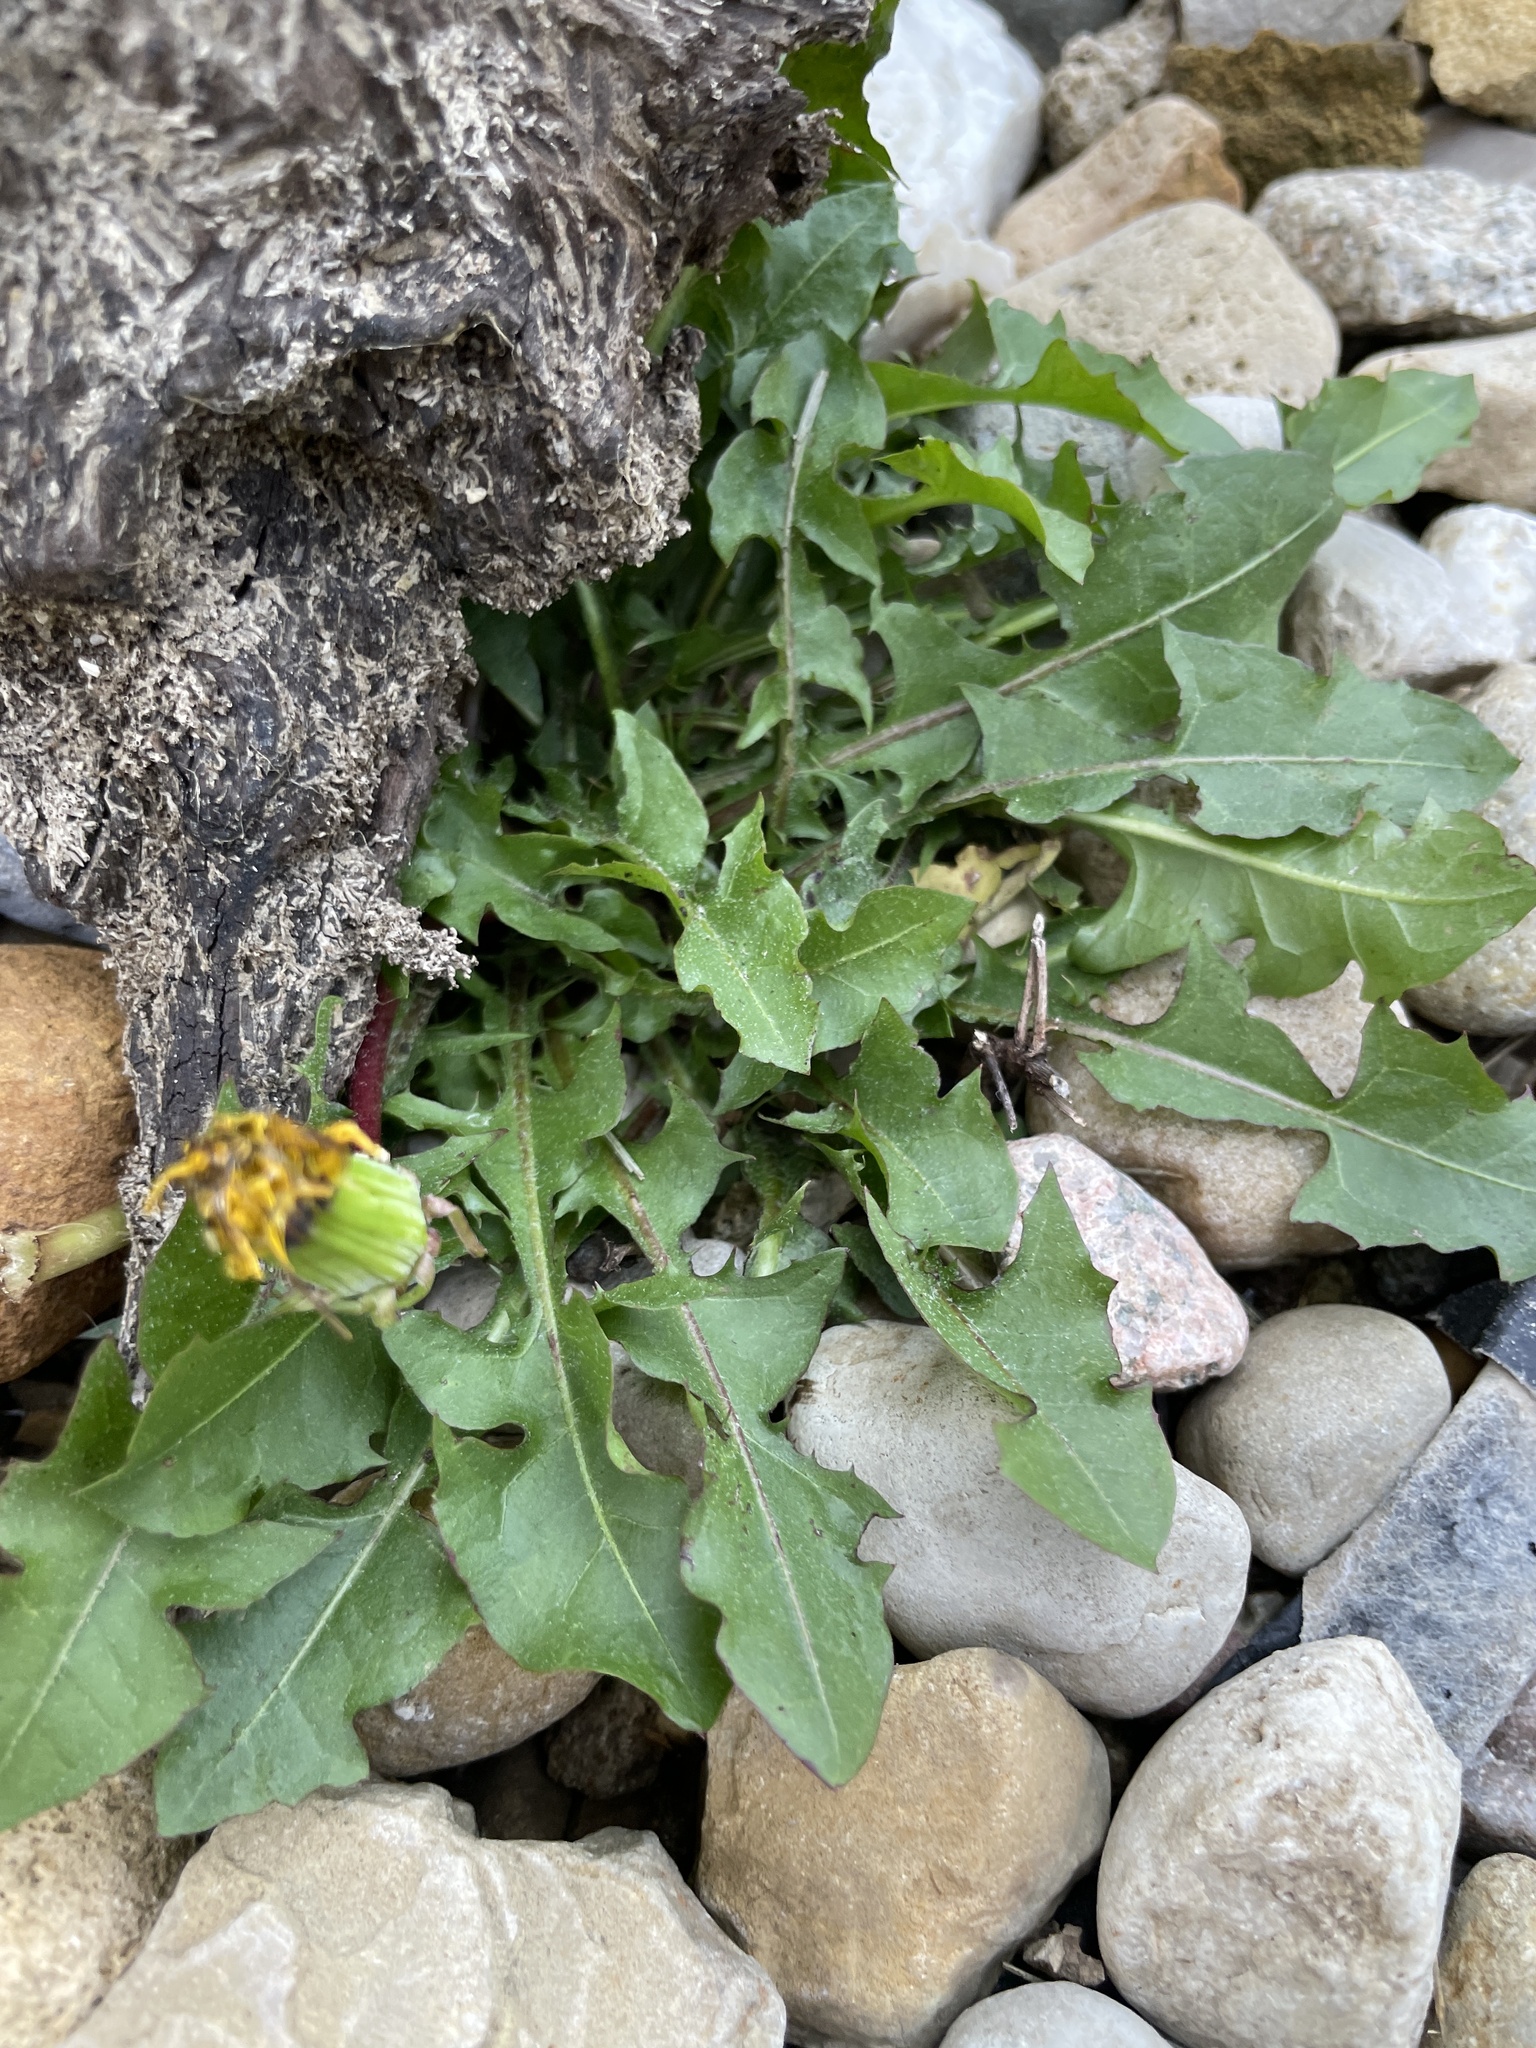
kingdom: Plantae
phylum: Tracheophyta
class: Magnoliopsida
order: Asterales
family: Asteraceae
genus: Taraxacum
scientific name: Taraxacum officinale
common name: Common dandelion
